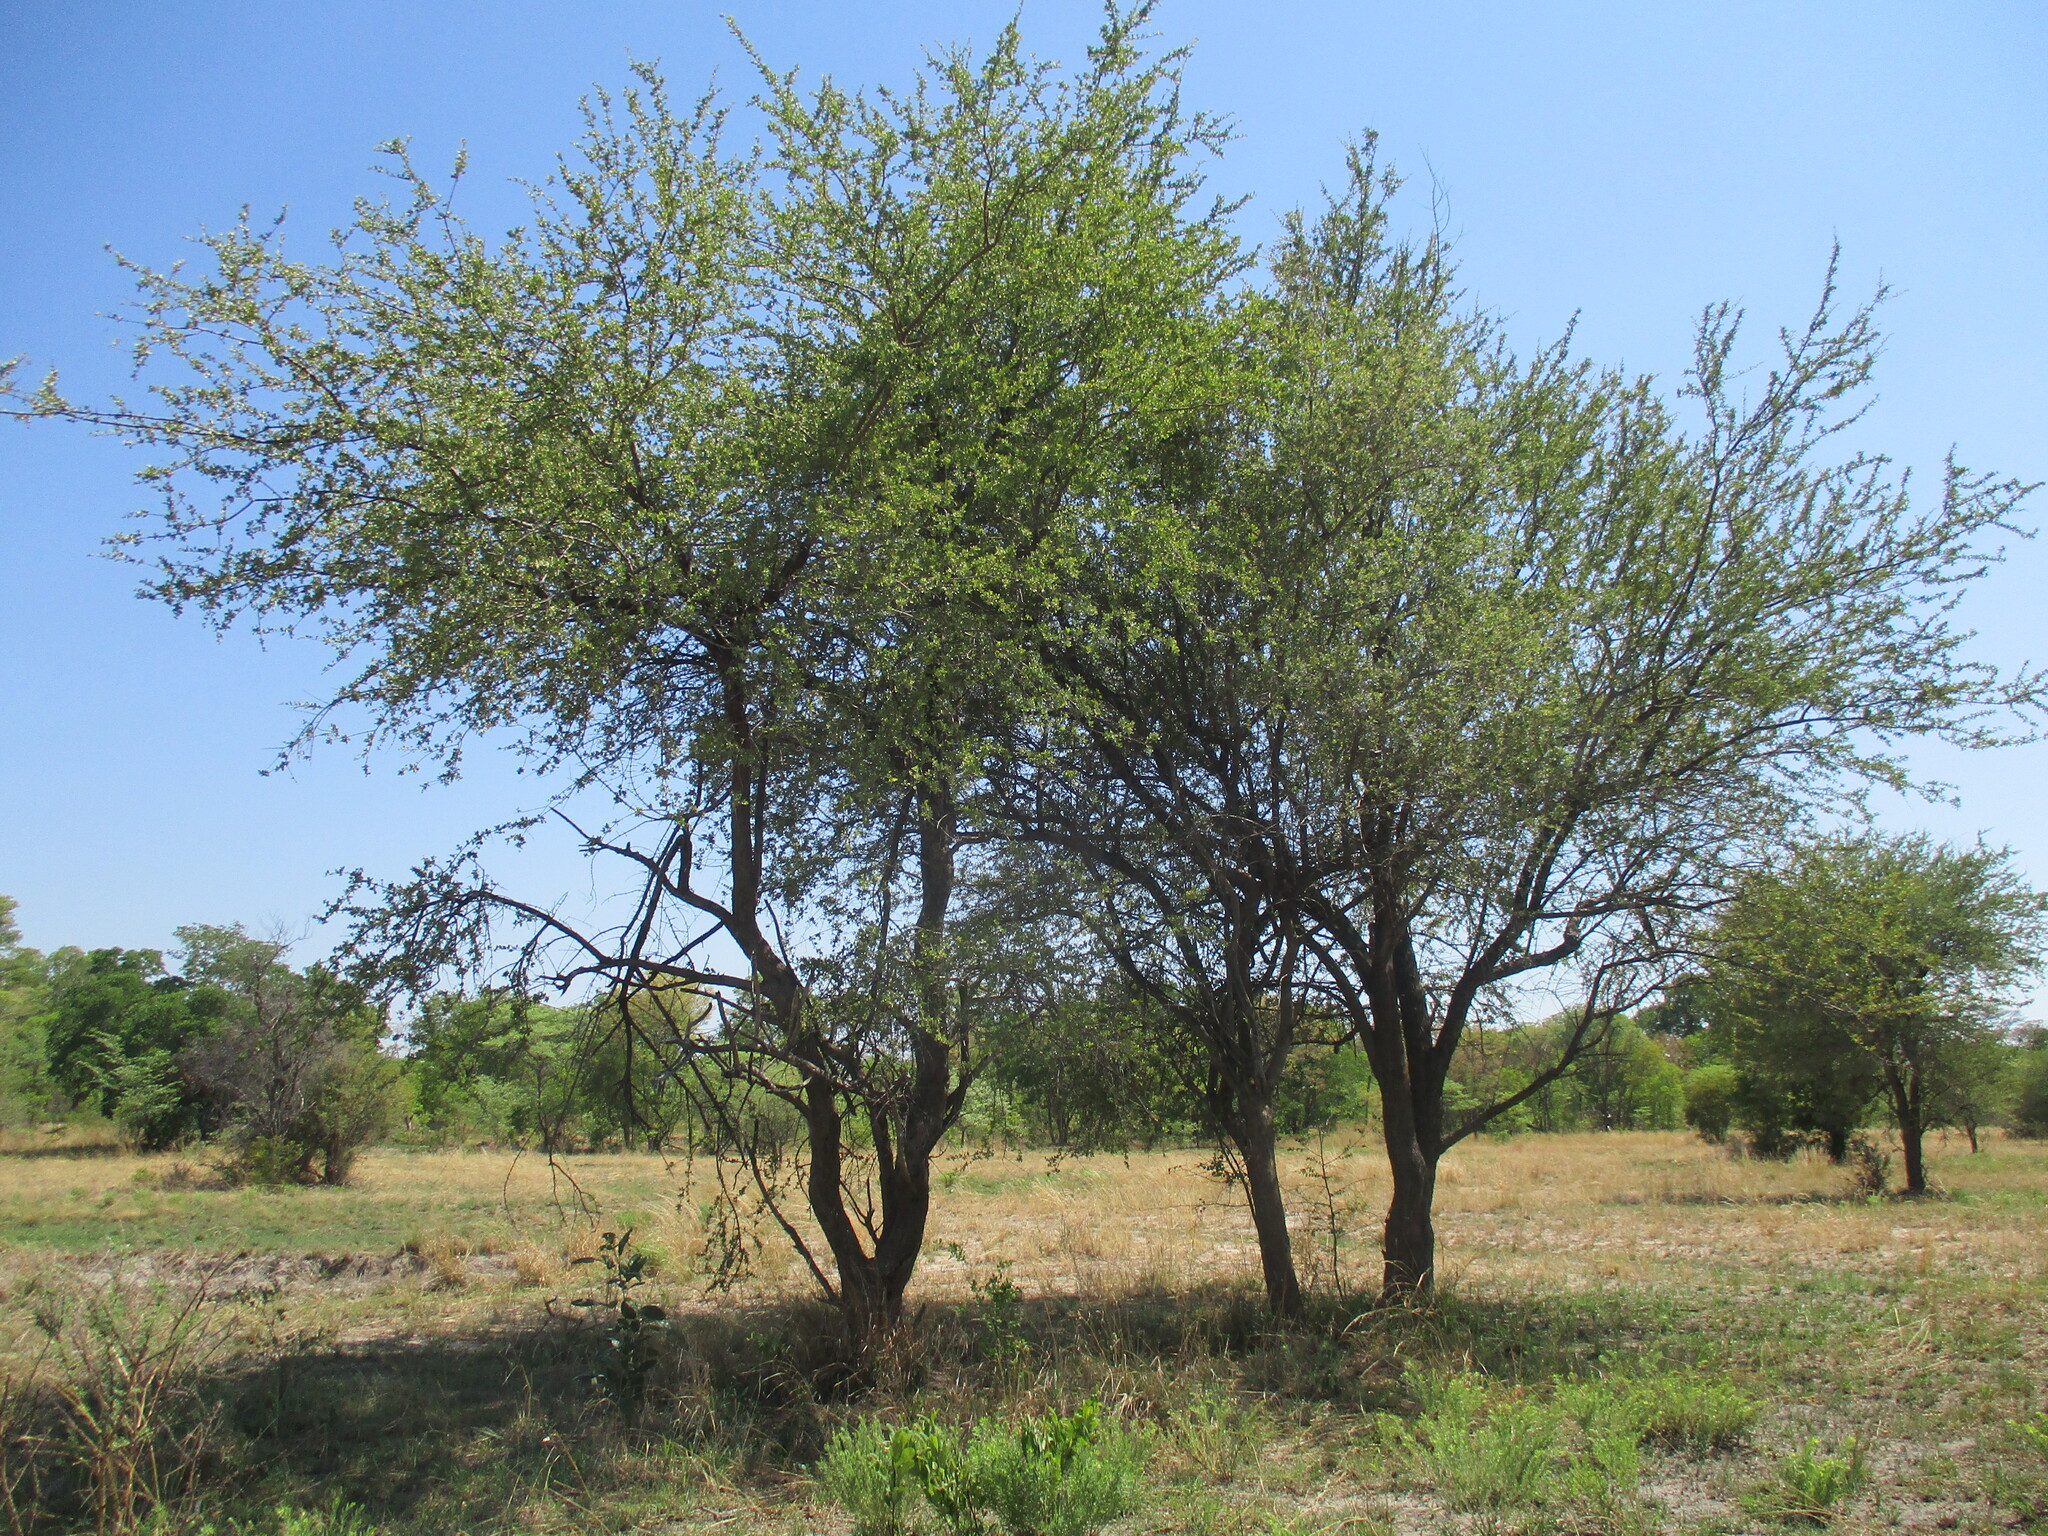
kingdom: Plantae
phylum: Tracheophyta
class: Magnoliopsida
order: Myrtales
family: Combretaceae
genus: Combretum
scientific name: Combretum imberbe
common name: Leadwood
